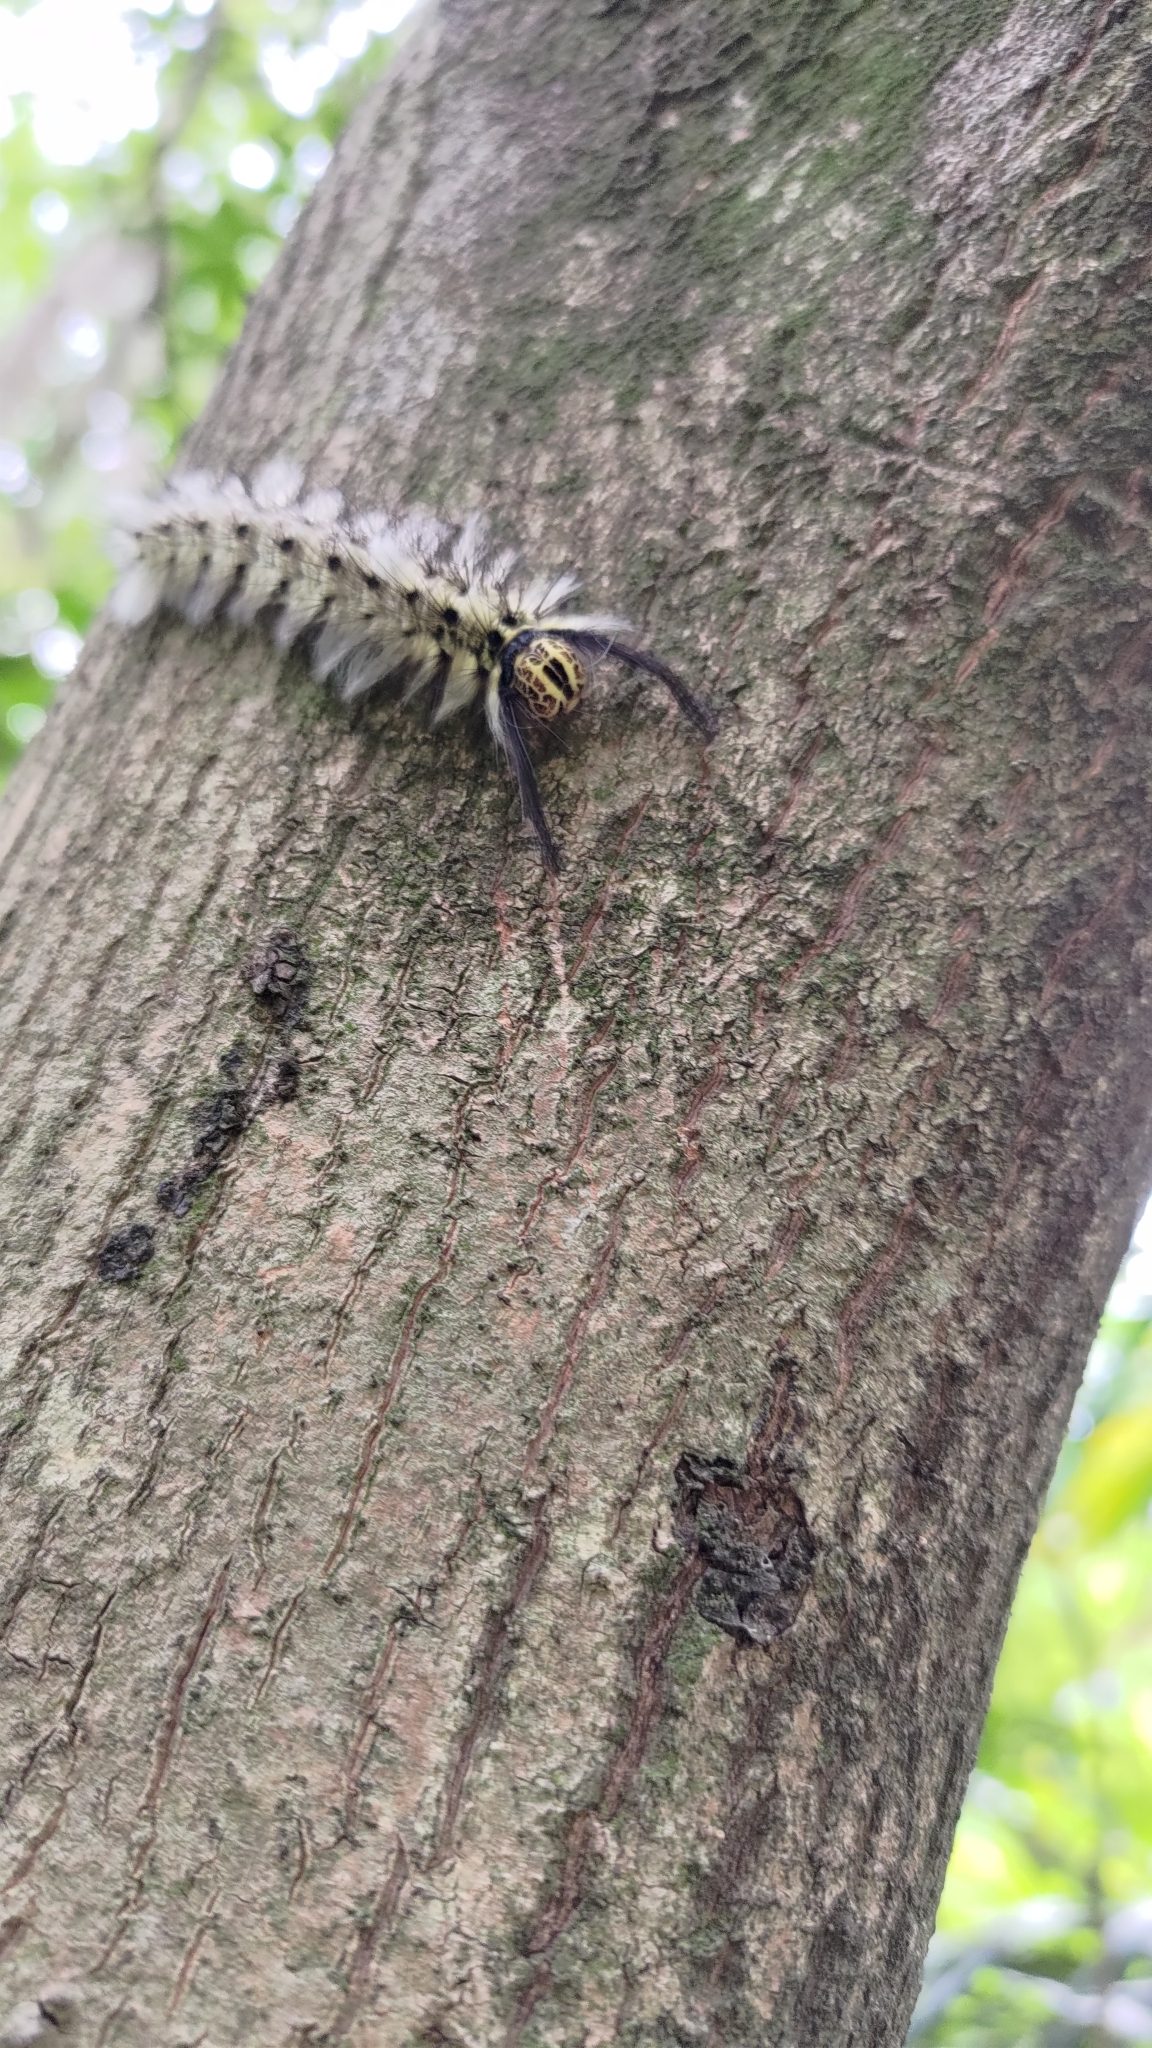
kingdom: Animalia
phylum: Arthropoda
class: Insecta
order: Lepidoptera
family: Lasiocampidae
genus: Trabala
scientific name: Trabala vishnou
